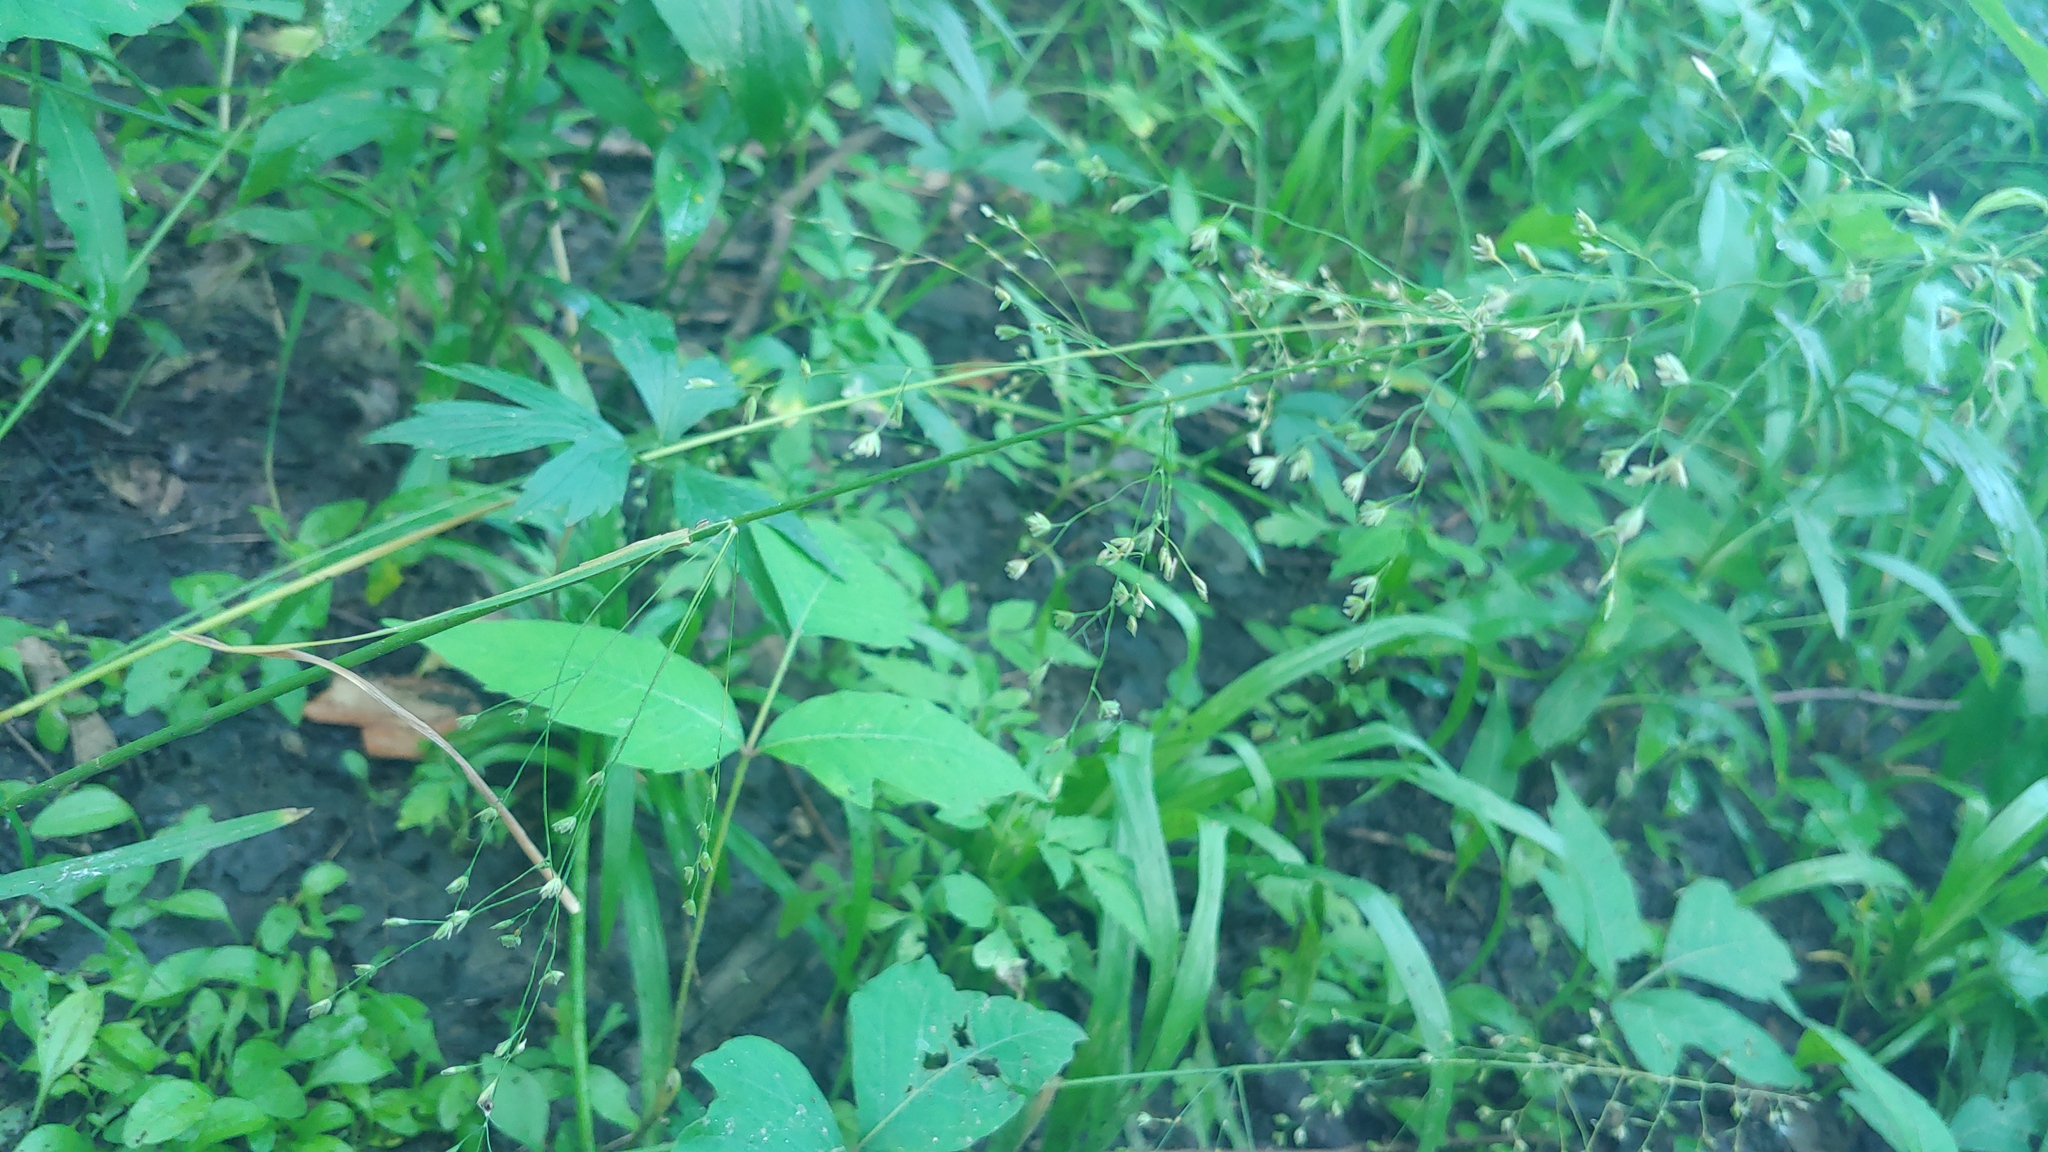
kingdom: Plantae
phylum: Tracheophyta
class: Liliopsida
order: Poales
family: Poaceae
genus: Poa
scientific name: Poa sylvestris
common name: North american woodland bluegrass
